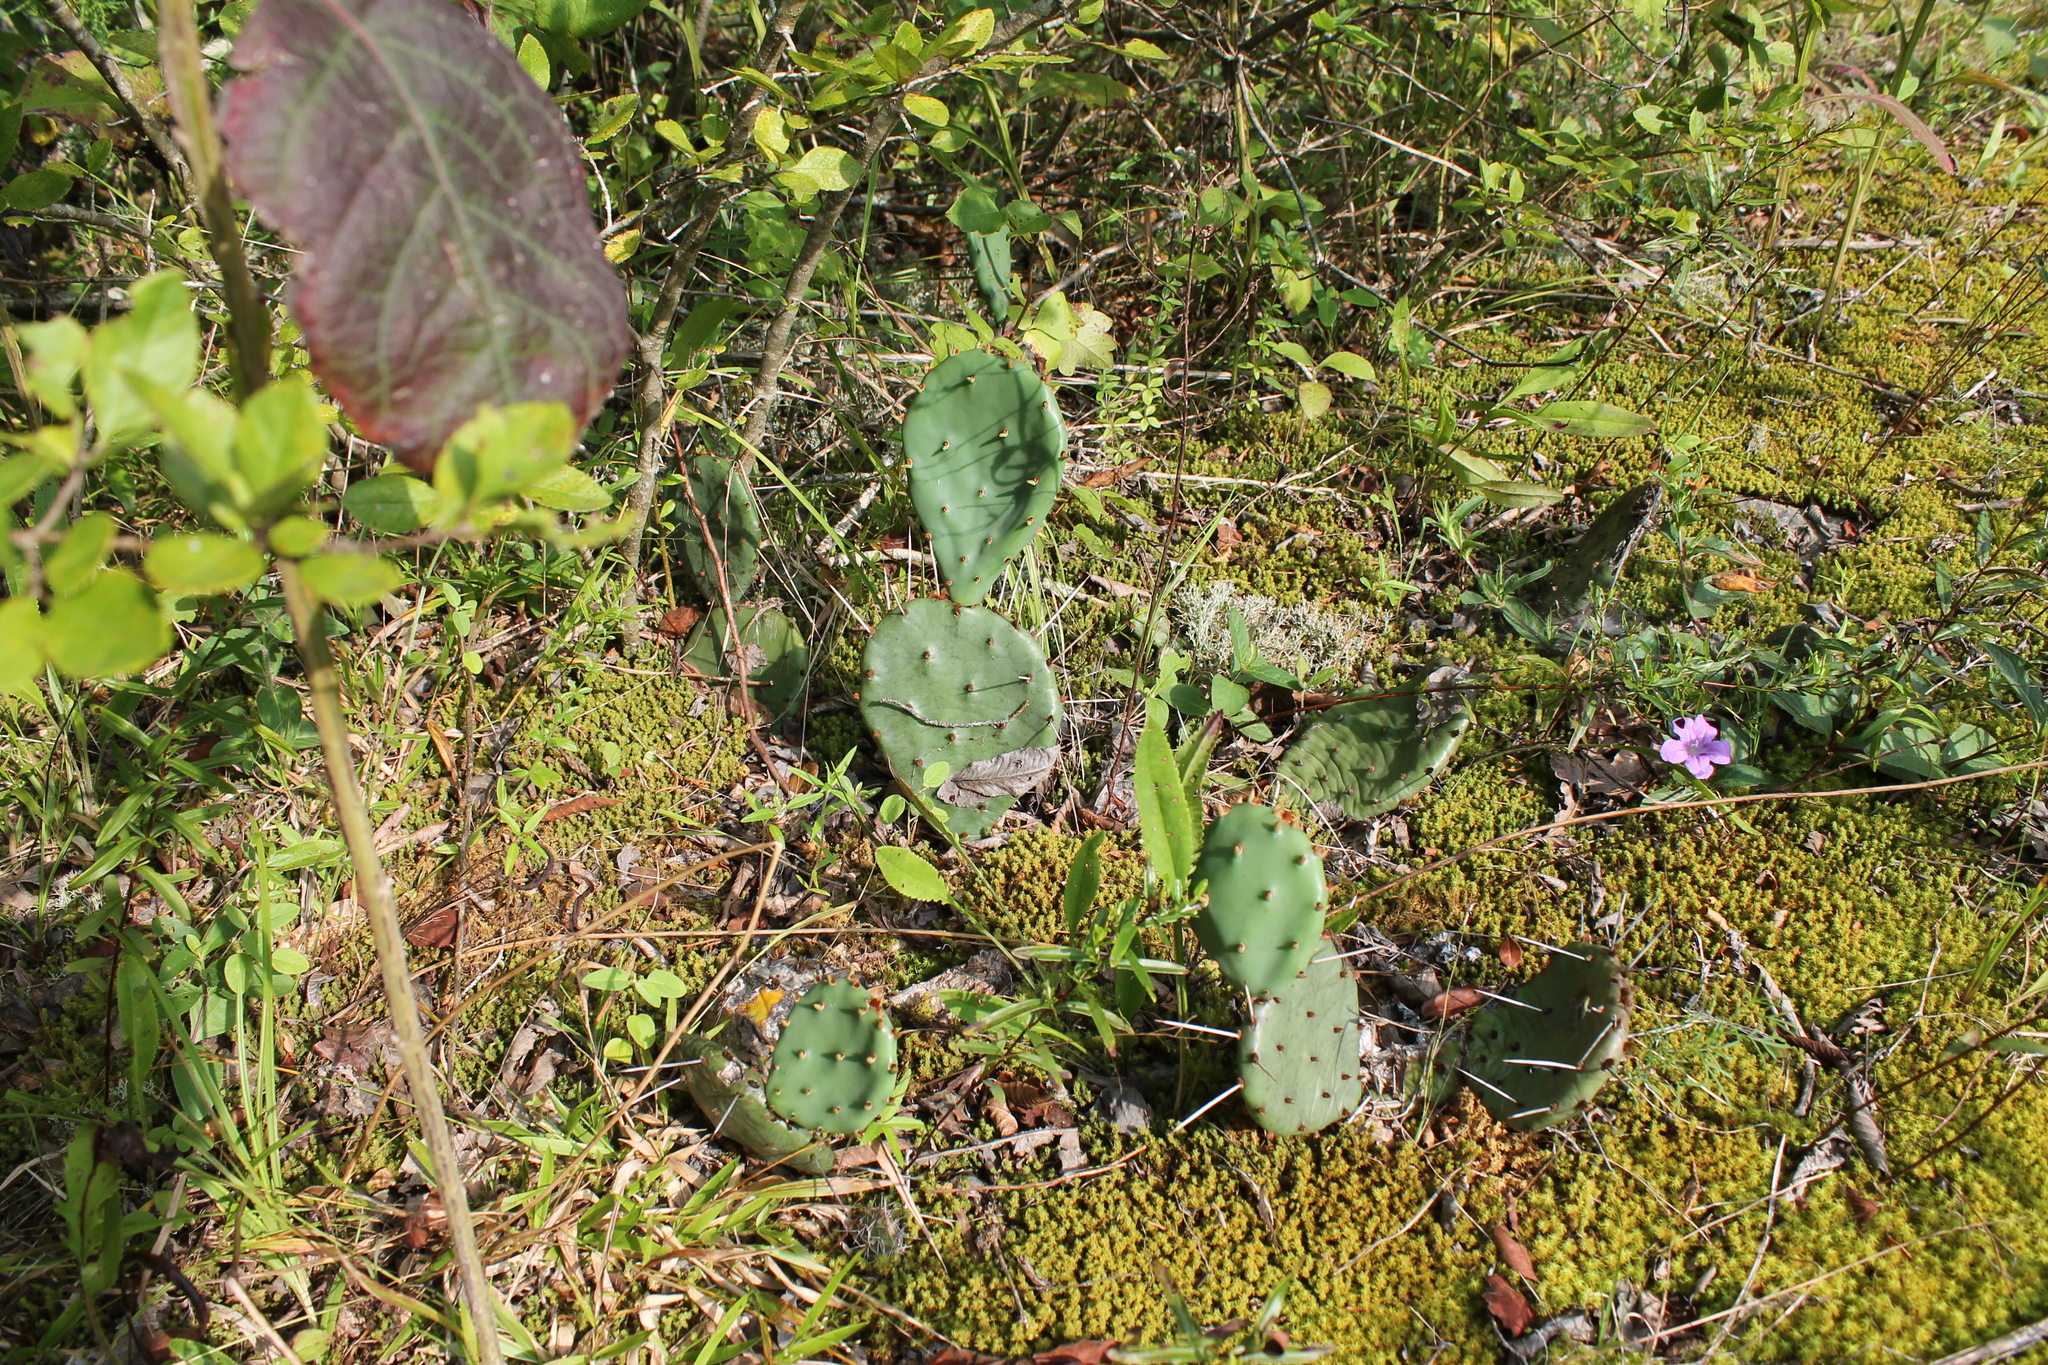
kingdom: Plantae
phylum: Tracheophyta
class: Magnoliopsida
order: Caryophyllales
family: Cactaceae
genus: Opuntia
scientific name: Opuntia humifusa
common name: Eastern prickly-pear
